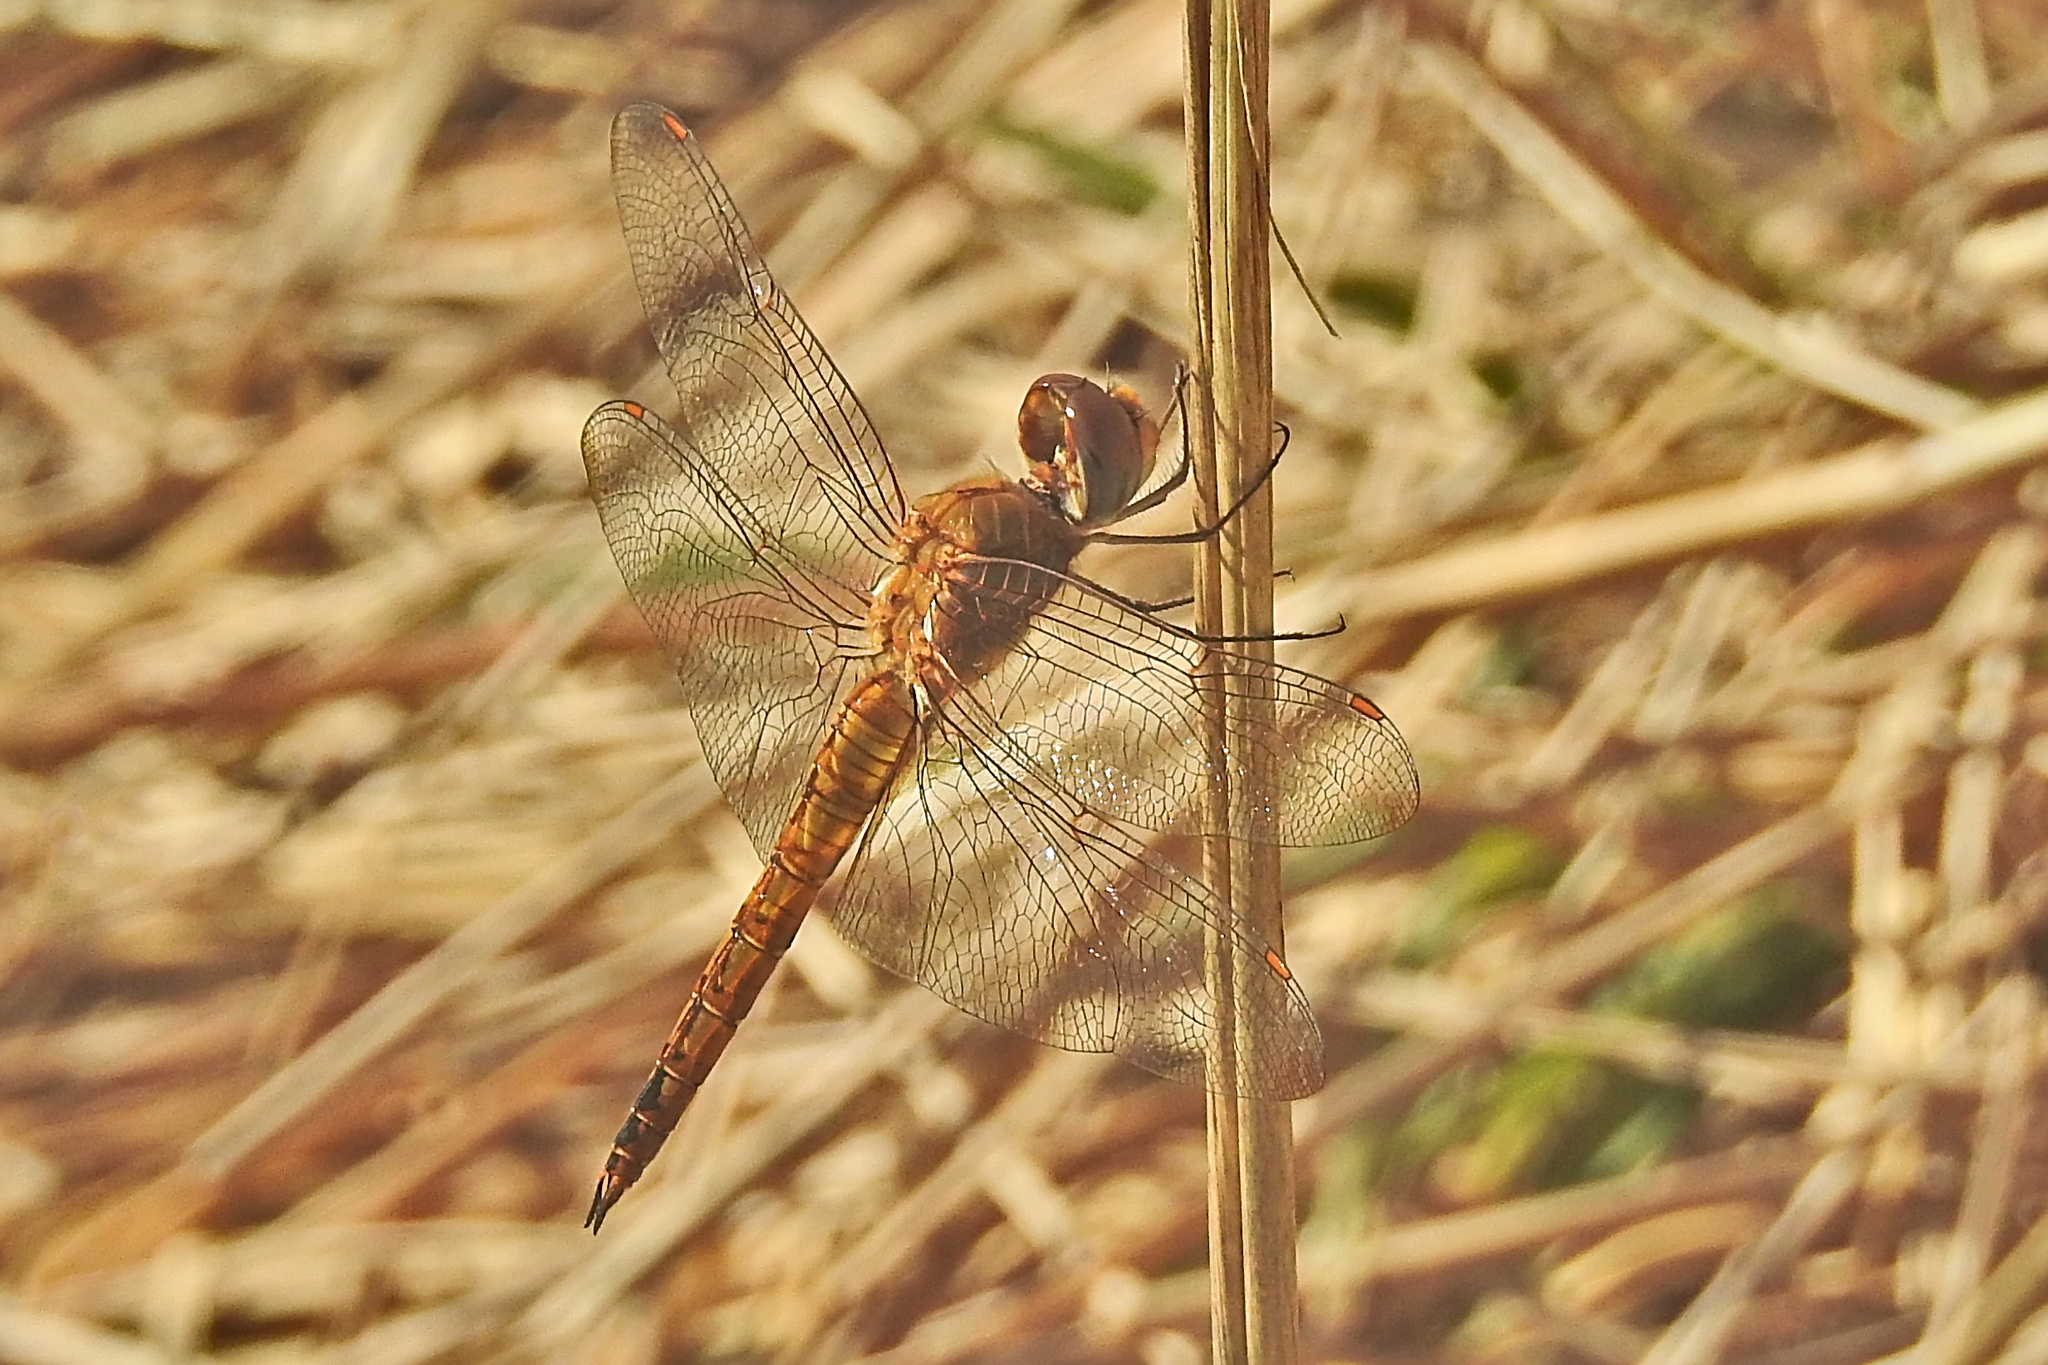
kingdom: Animalia
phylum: Arthropoda
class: Insecta
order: Odonata
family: Libellulidae
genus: Pantala
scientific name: Pantala flavescens
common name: Wandering glider
